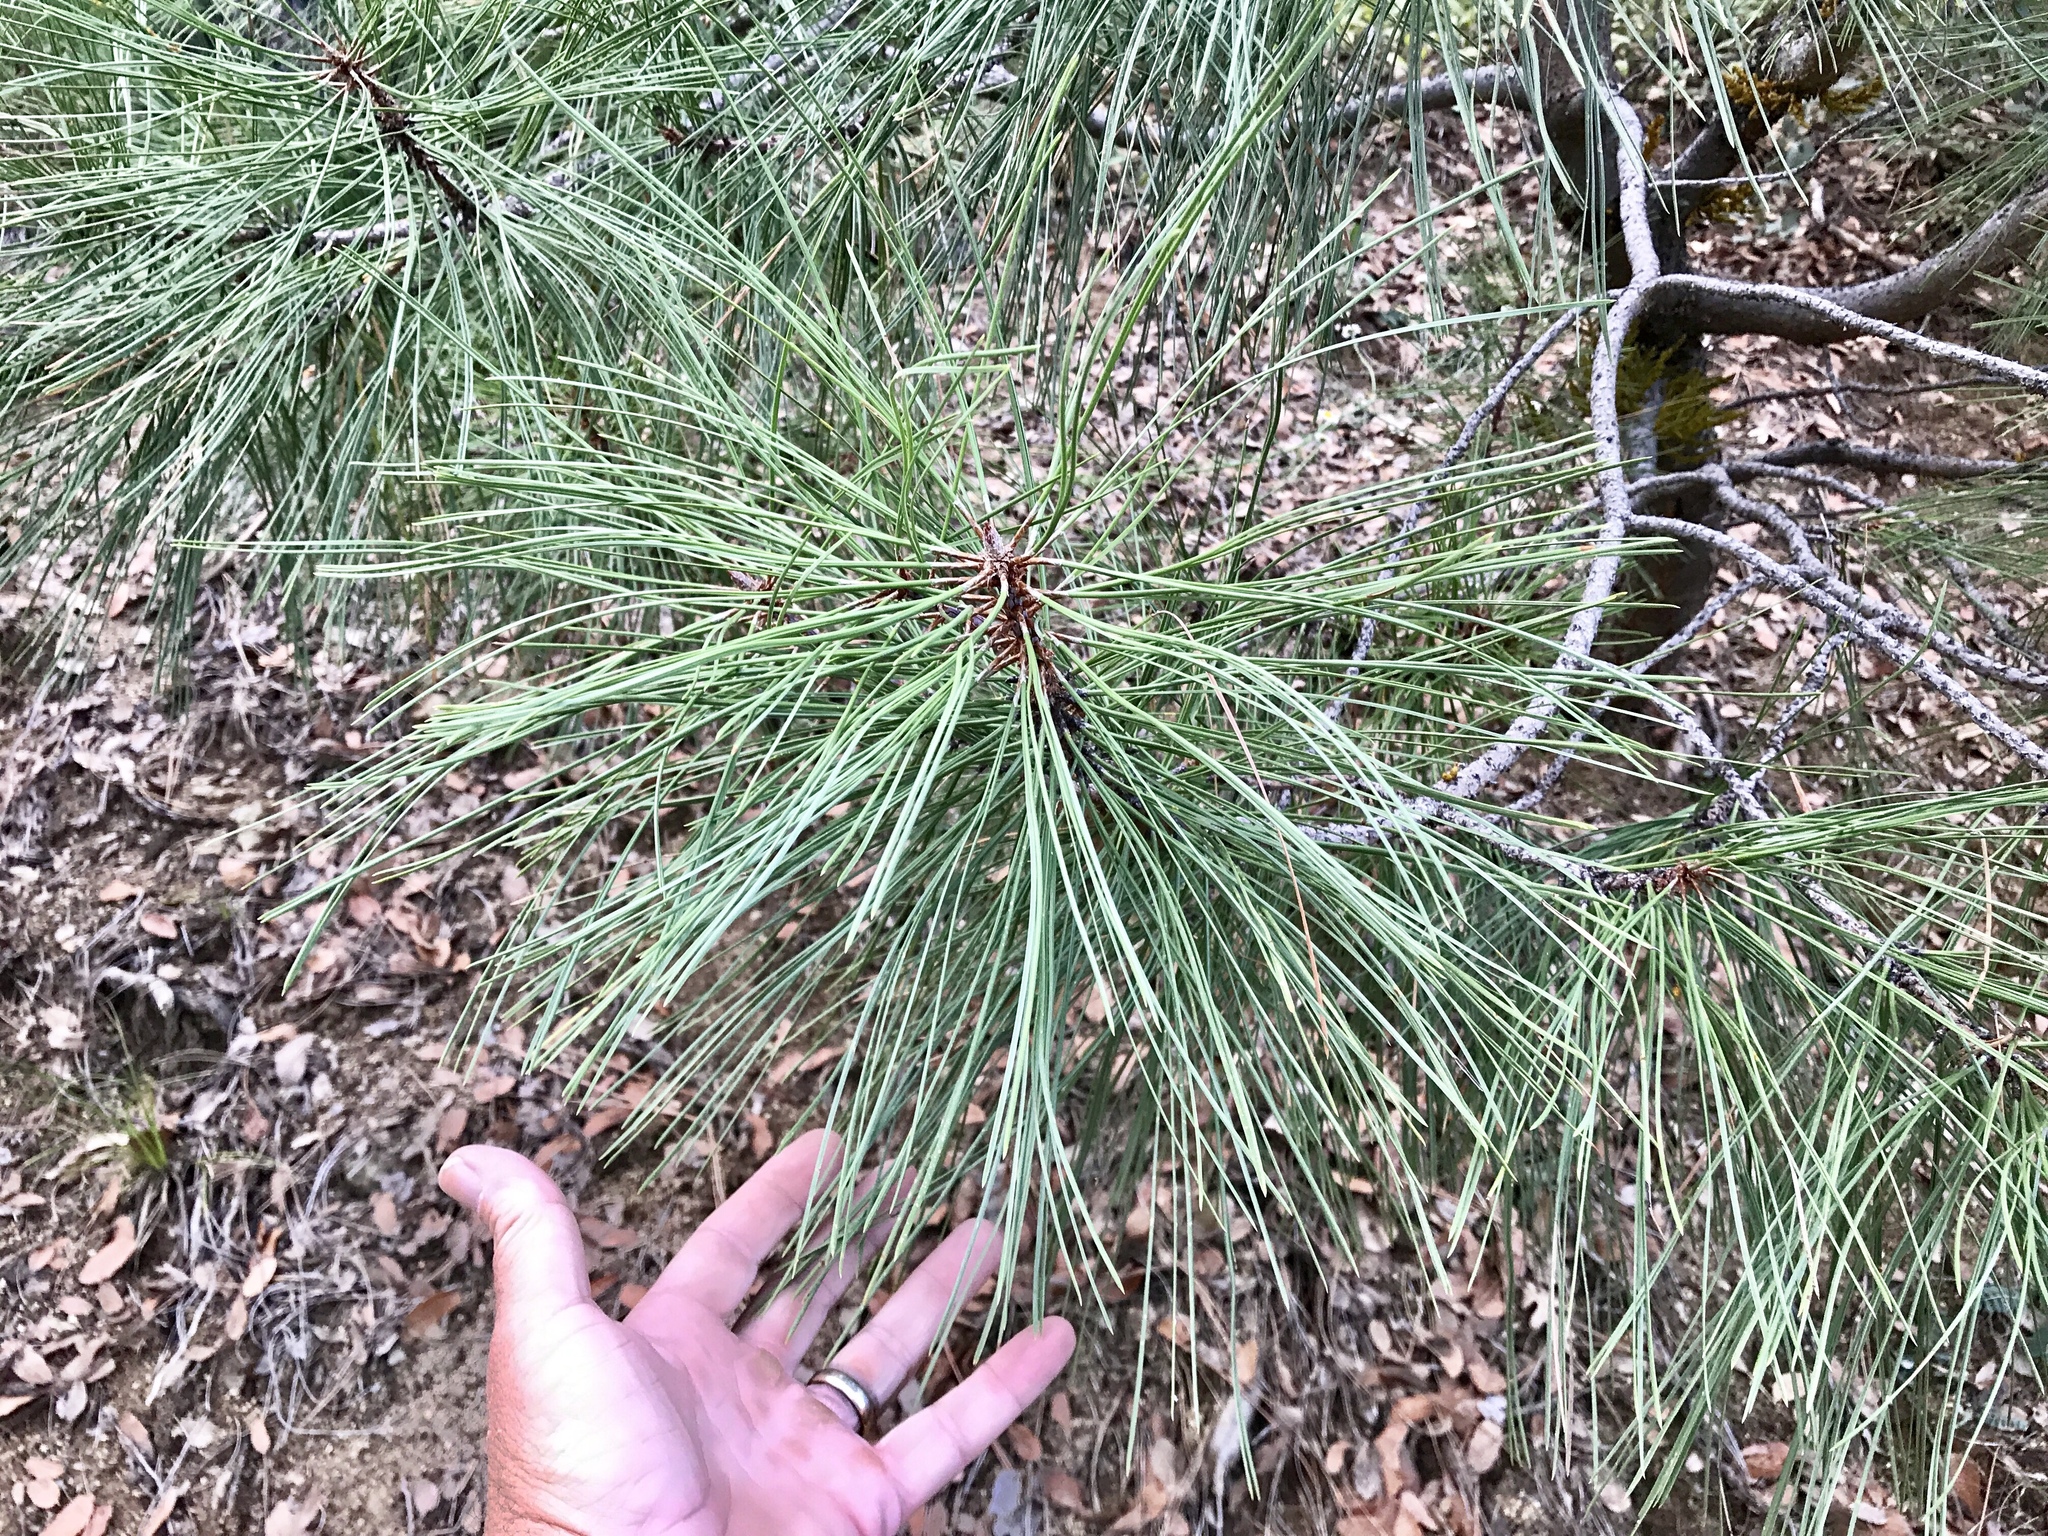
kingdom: Plantae
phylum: Tracheophyta
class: Pinopsida
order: Pinales
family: Pinaceae
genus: Pinus
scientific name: Pinus ponderosa
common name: Western yellow-pine
